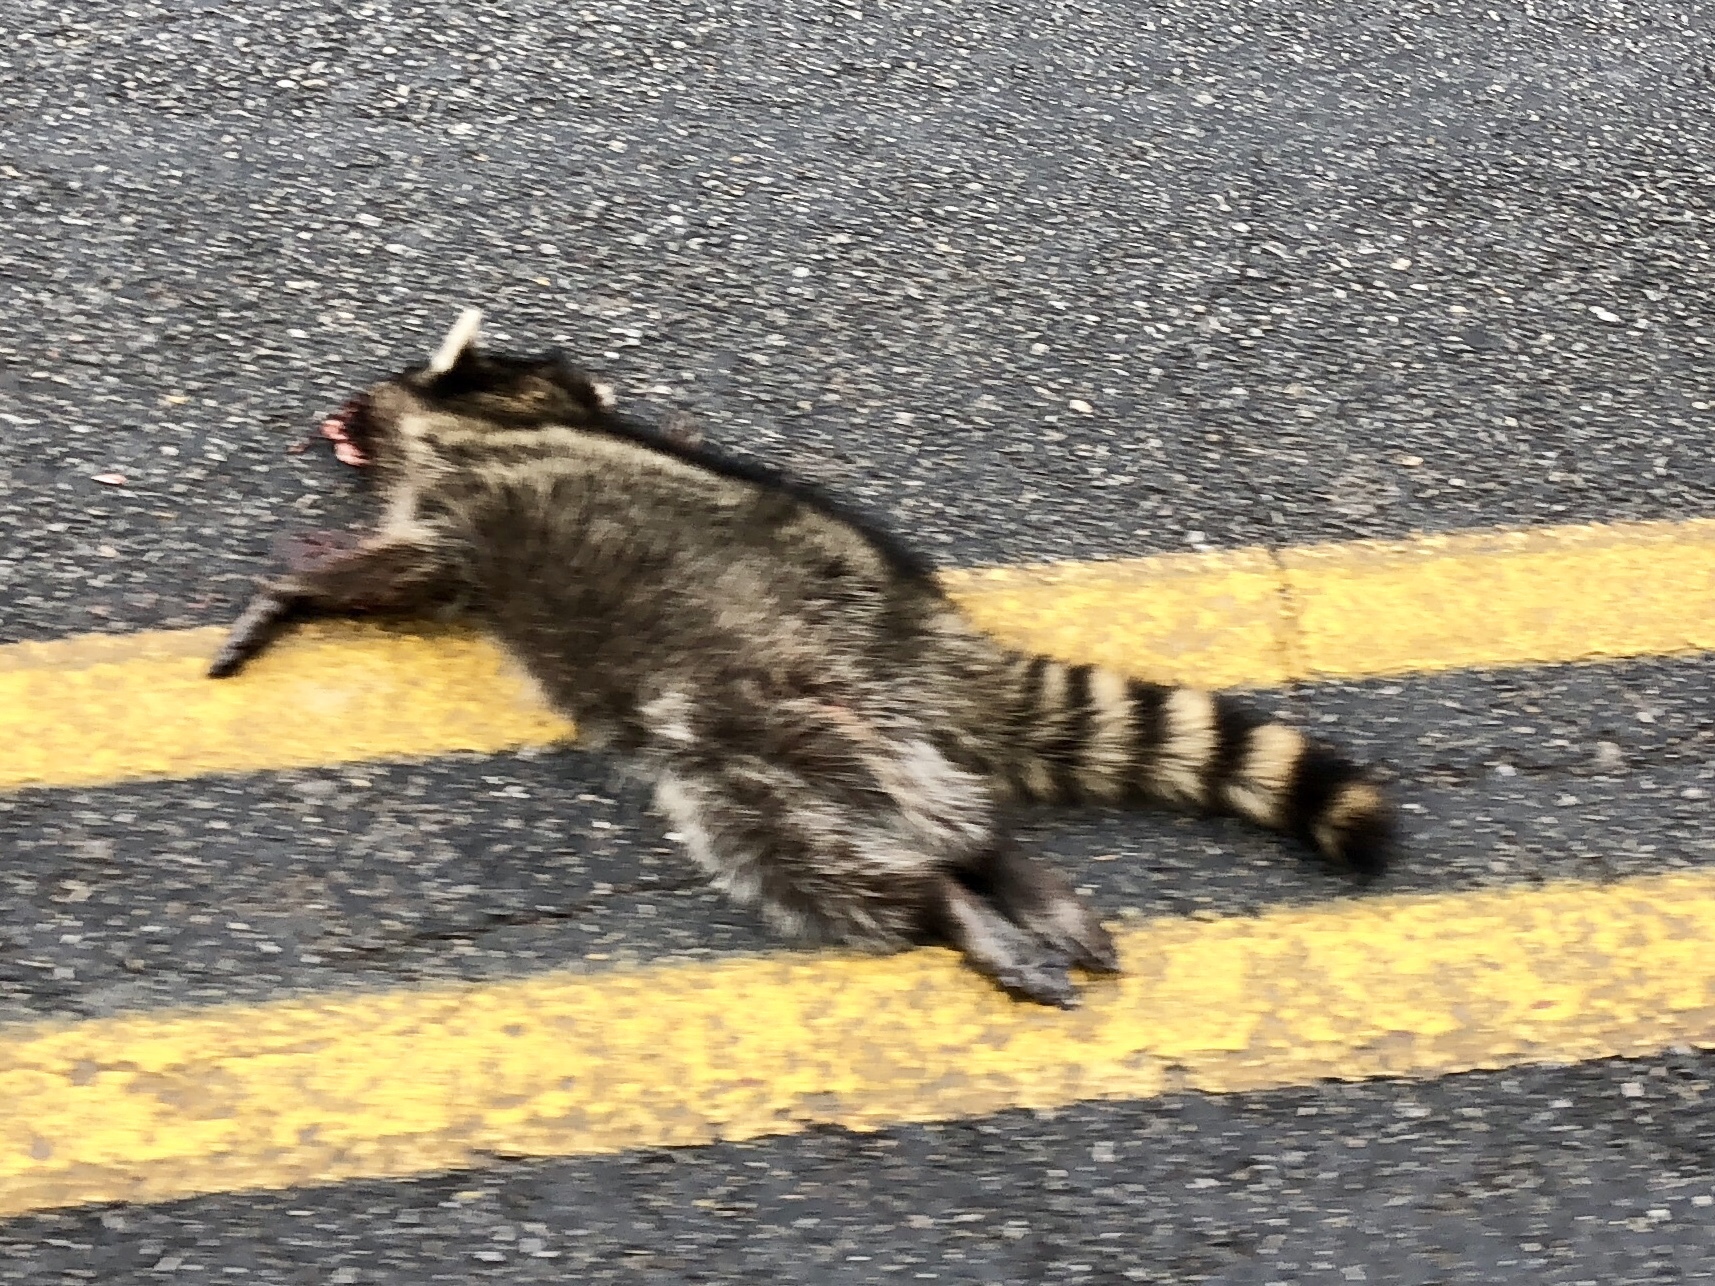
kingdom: Animalia
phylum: Chordata
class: Mammalia
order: Carnivora
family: Procyonidae
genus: Procyon
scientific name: Procyon lotor
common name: Raccoon
